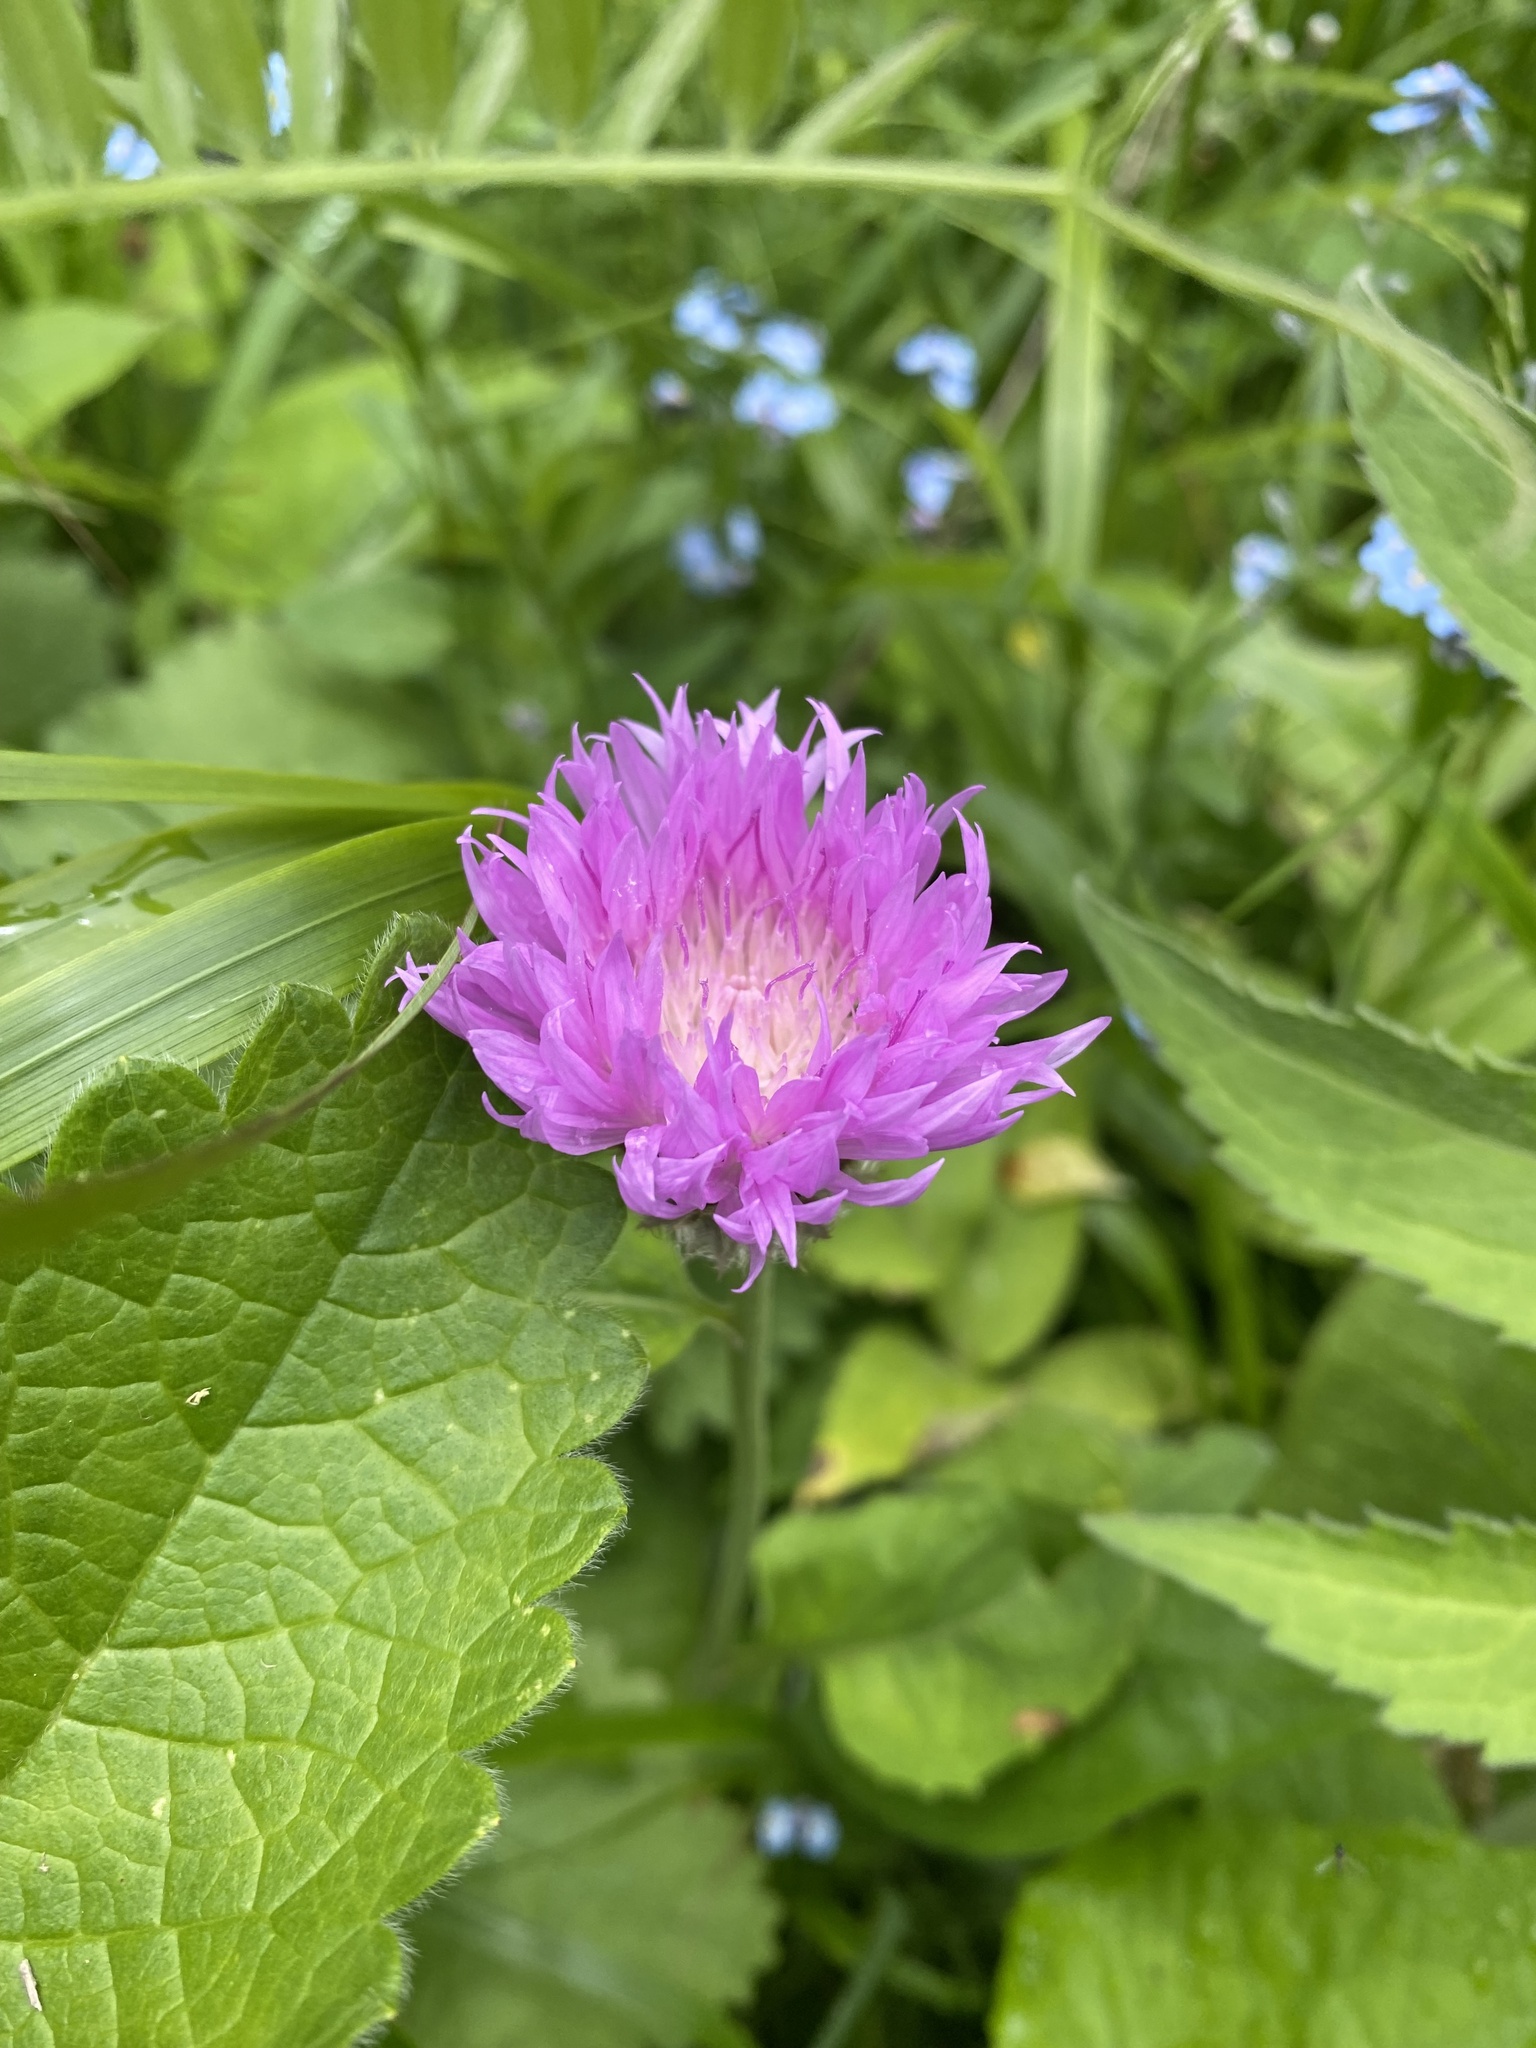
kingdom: Plantae
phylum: Tracheophyta
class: Magnoliopsida
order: Asterales
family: Asteraceae
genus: Psephellus
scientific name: Psephellus dealbatus
